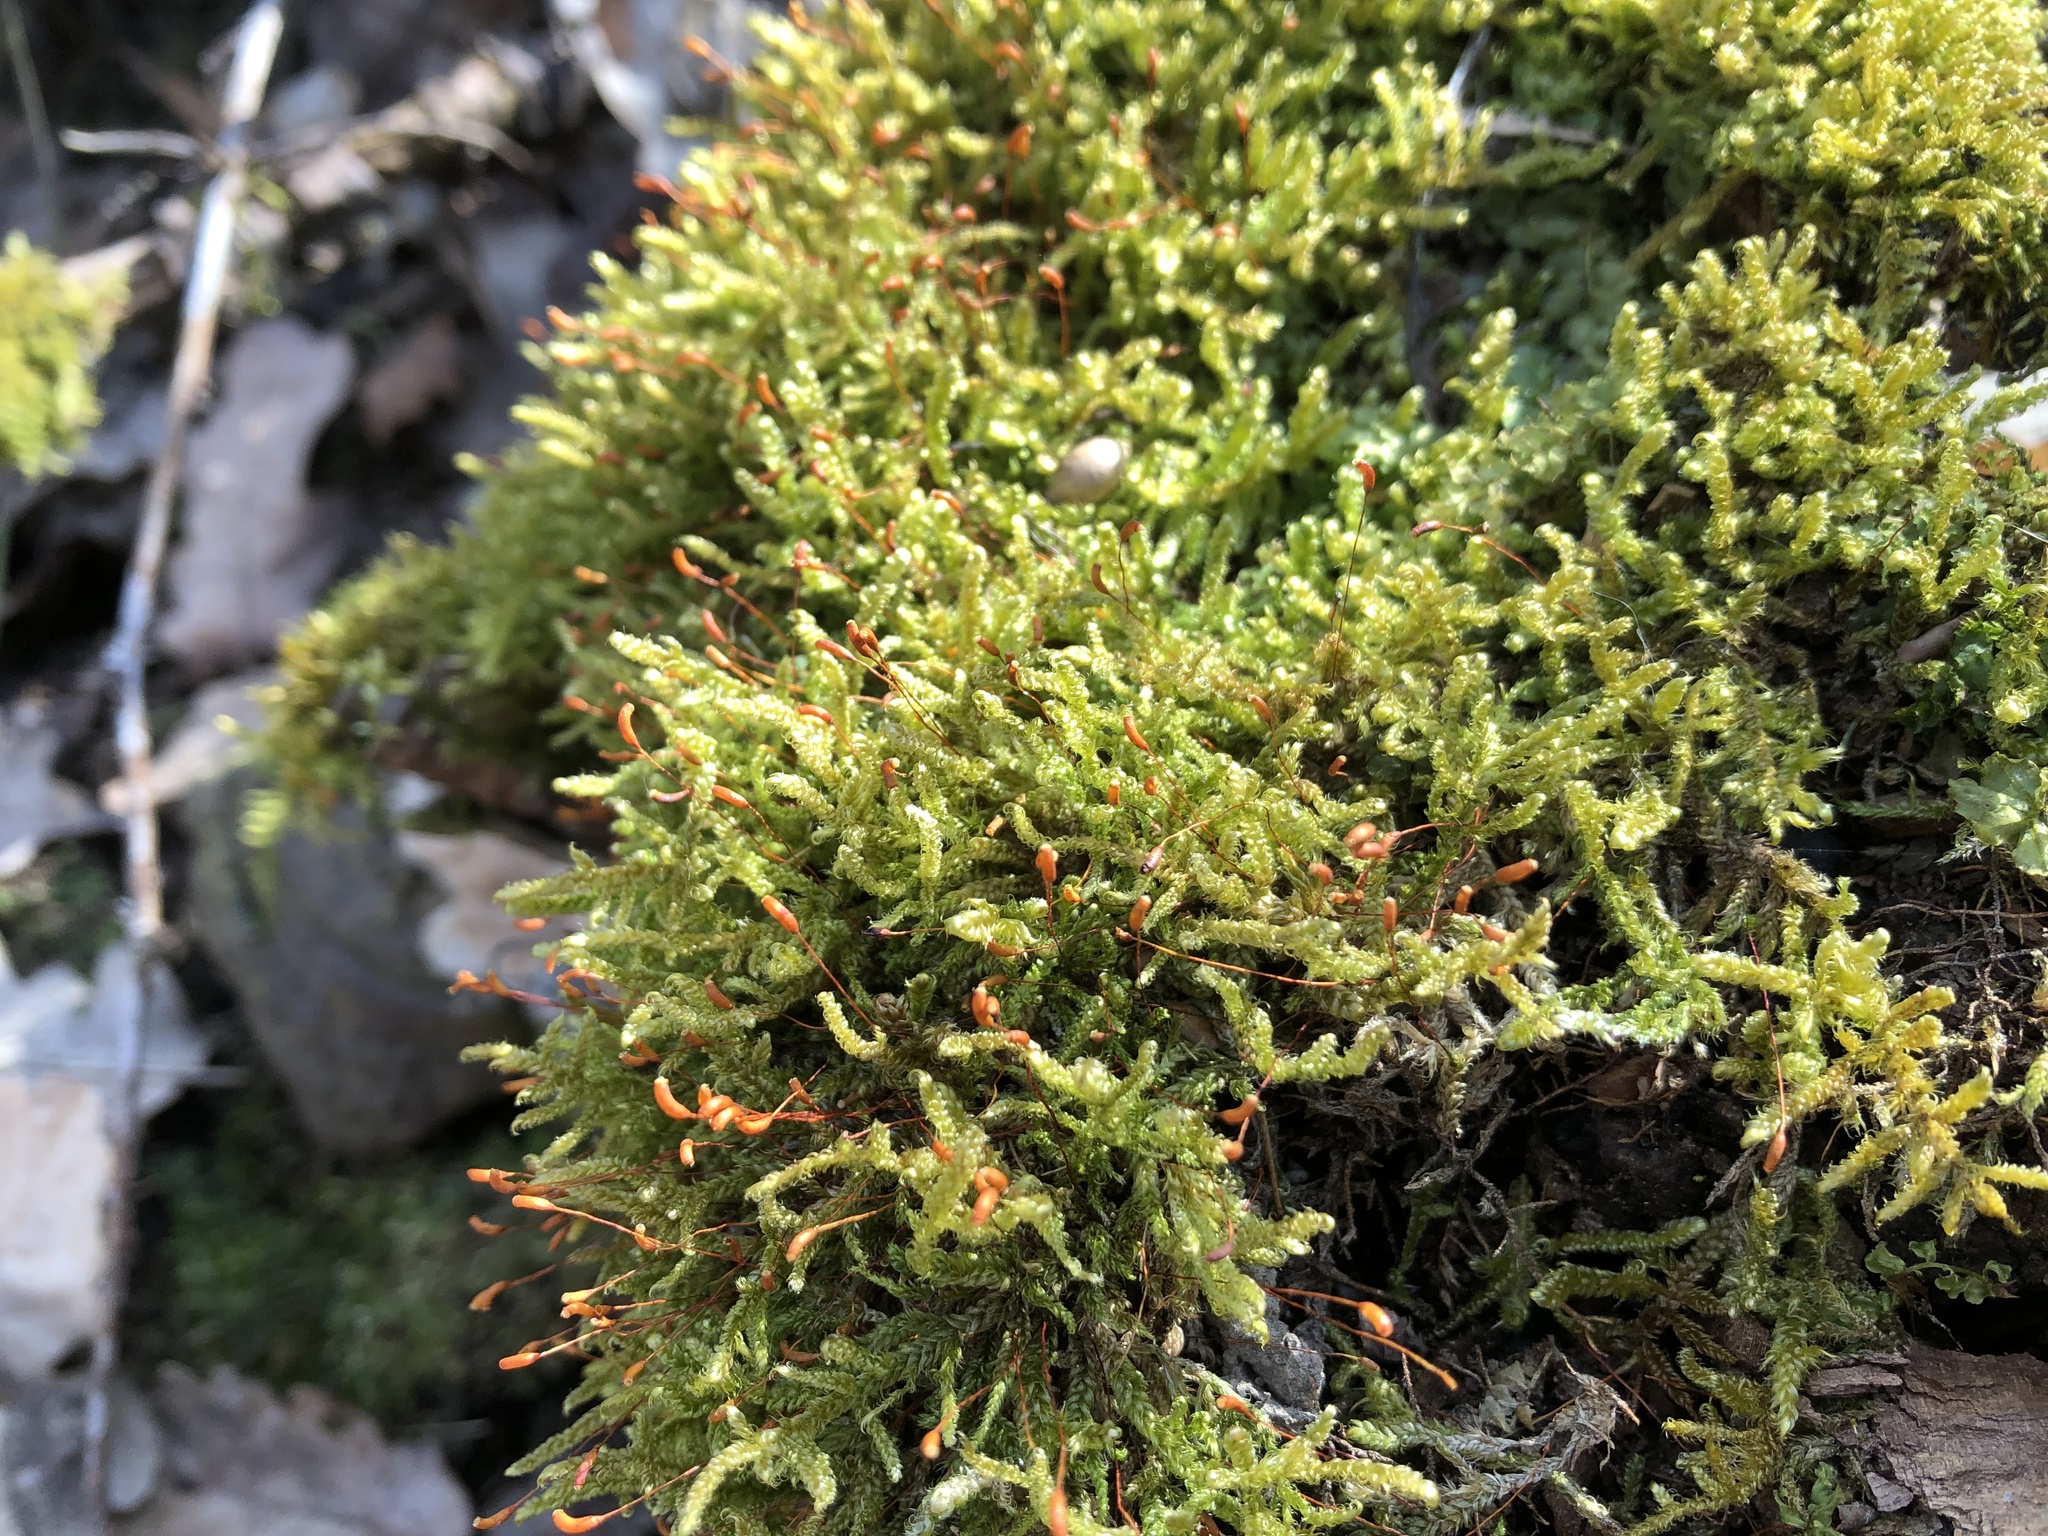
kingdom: Plantae
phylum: Bryophyta
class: Bryopsida
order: Hypnales
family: Hypnaceae
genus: Hypnum
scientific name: Hypnum cupressiforme
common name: Cypress-leaved plait-moss
